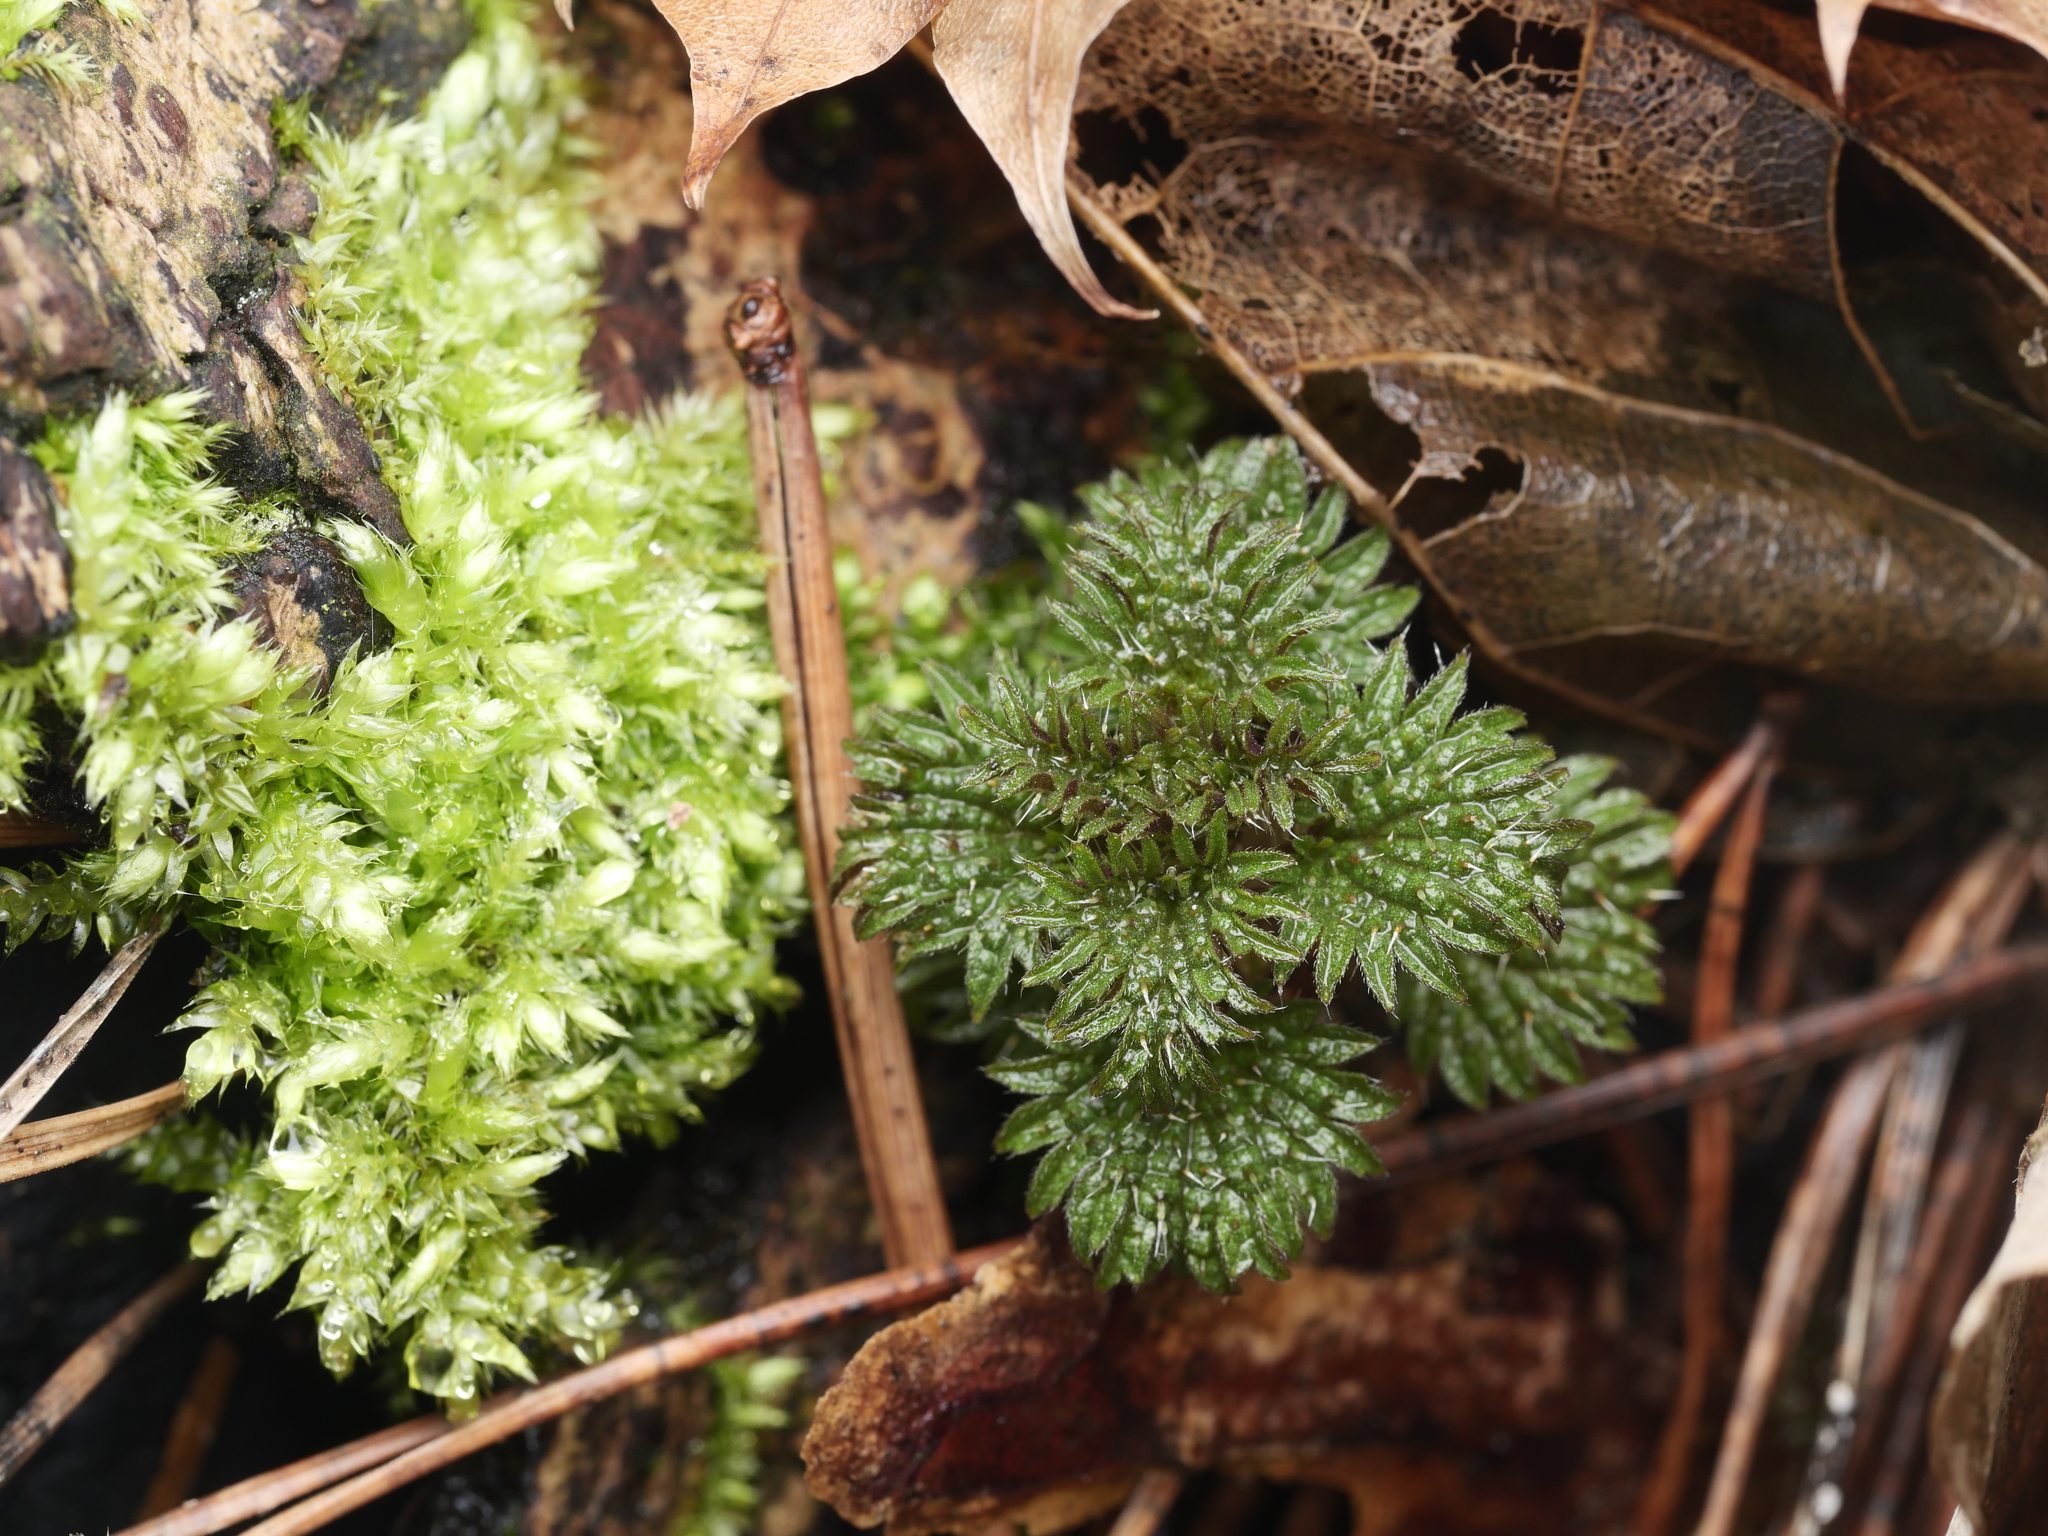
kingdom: Plantae
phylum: Tracheophyta
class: Magnoliopsida
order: Rosales
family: Urticaceae
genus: Urtica
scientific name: Urtica dioica
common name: Common nettle
